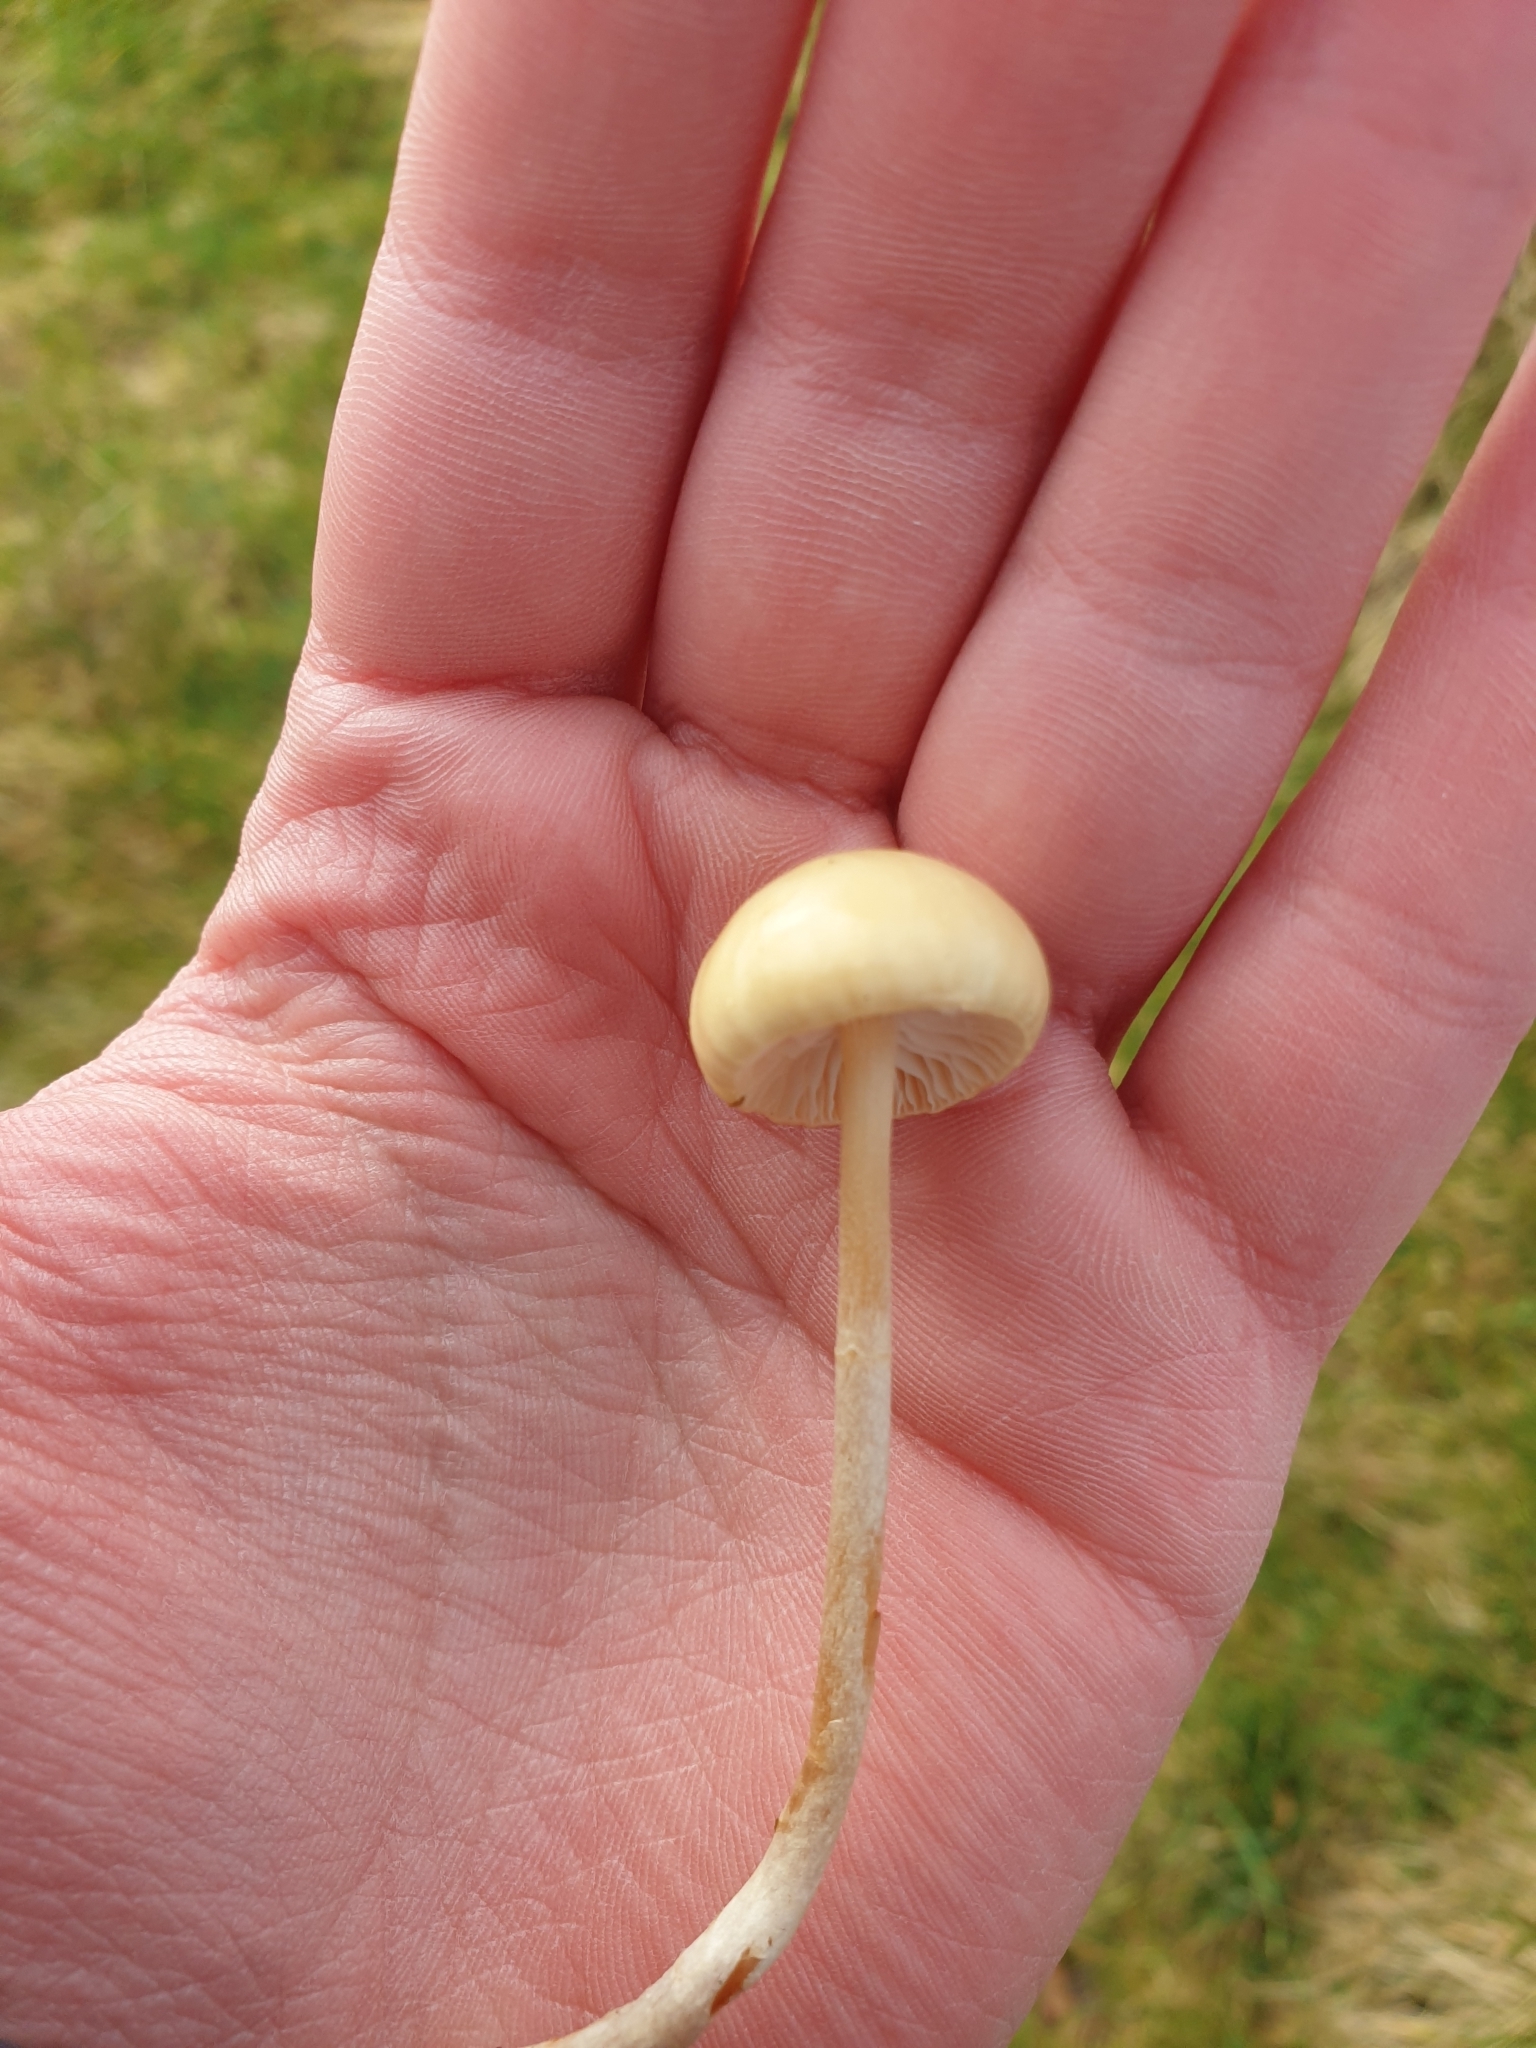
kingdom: Fungi
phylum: Basidiomycota
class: Agaricomycetes
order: Agaricales
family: Strophariaceae
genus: Protostropharia
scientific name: Protostropharia semiglobata
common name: Dung roundhead
